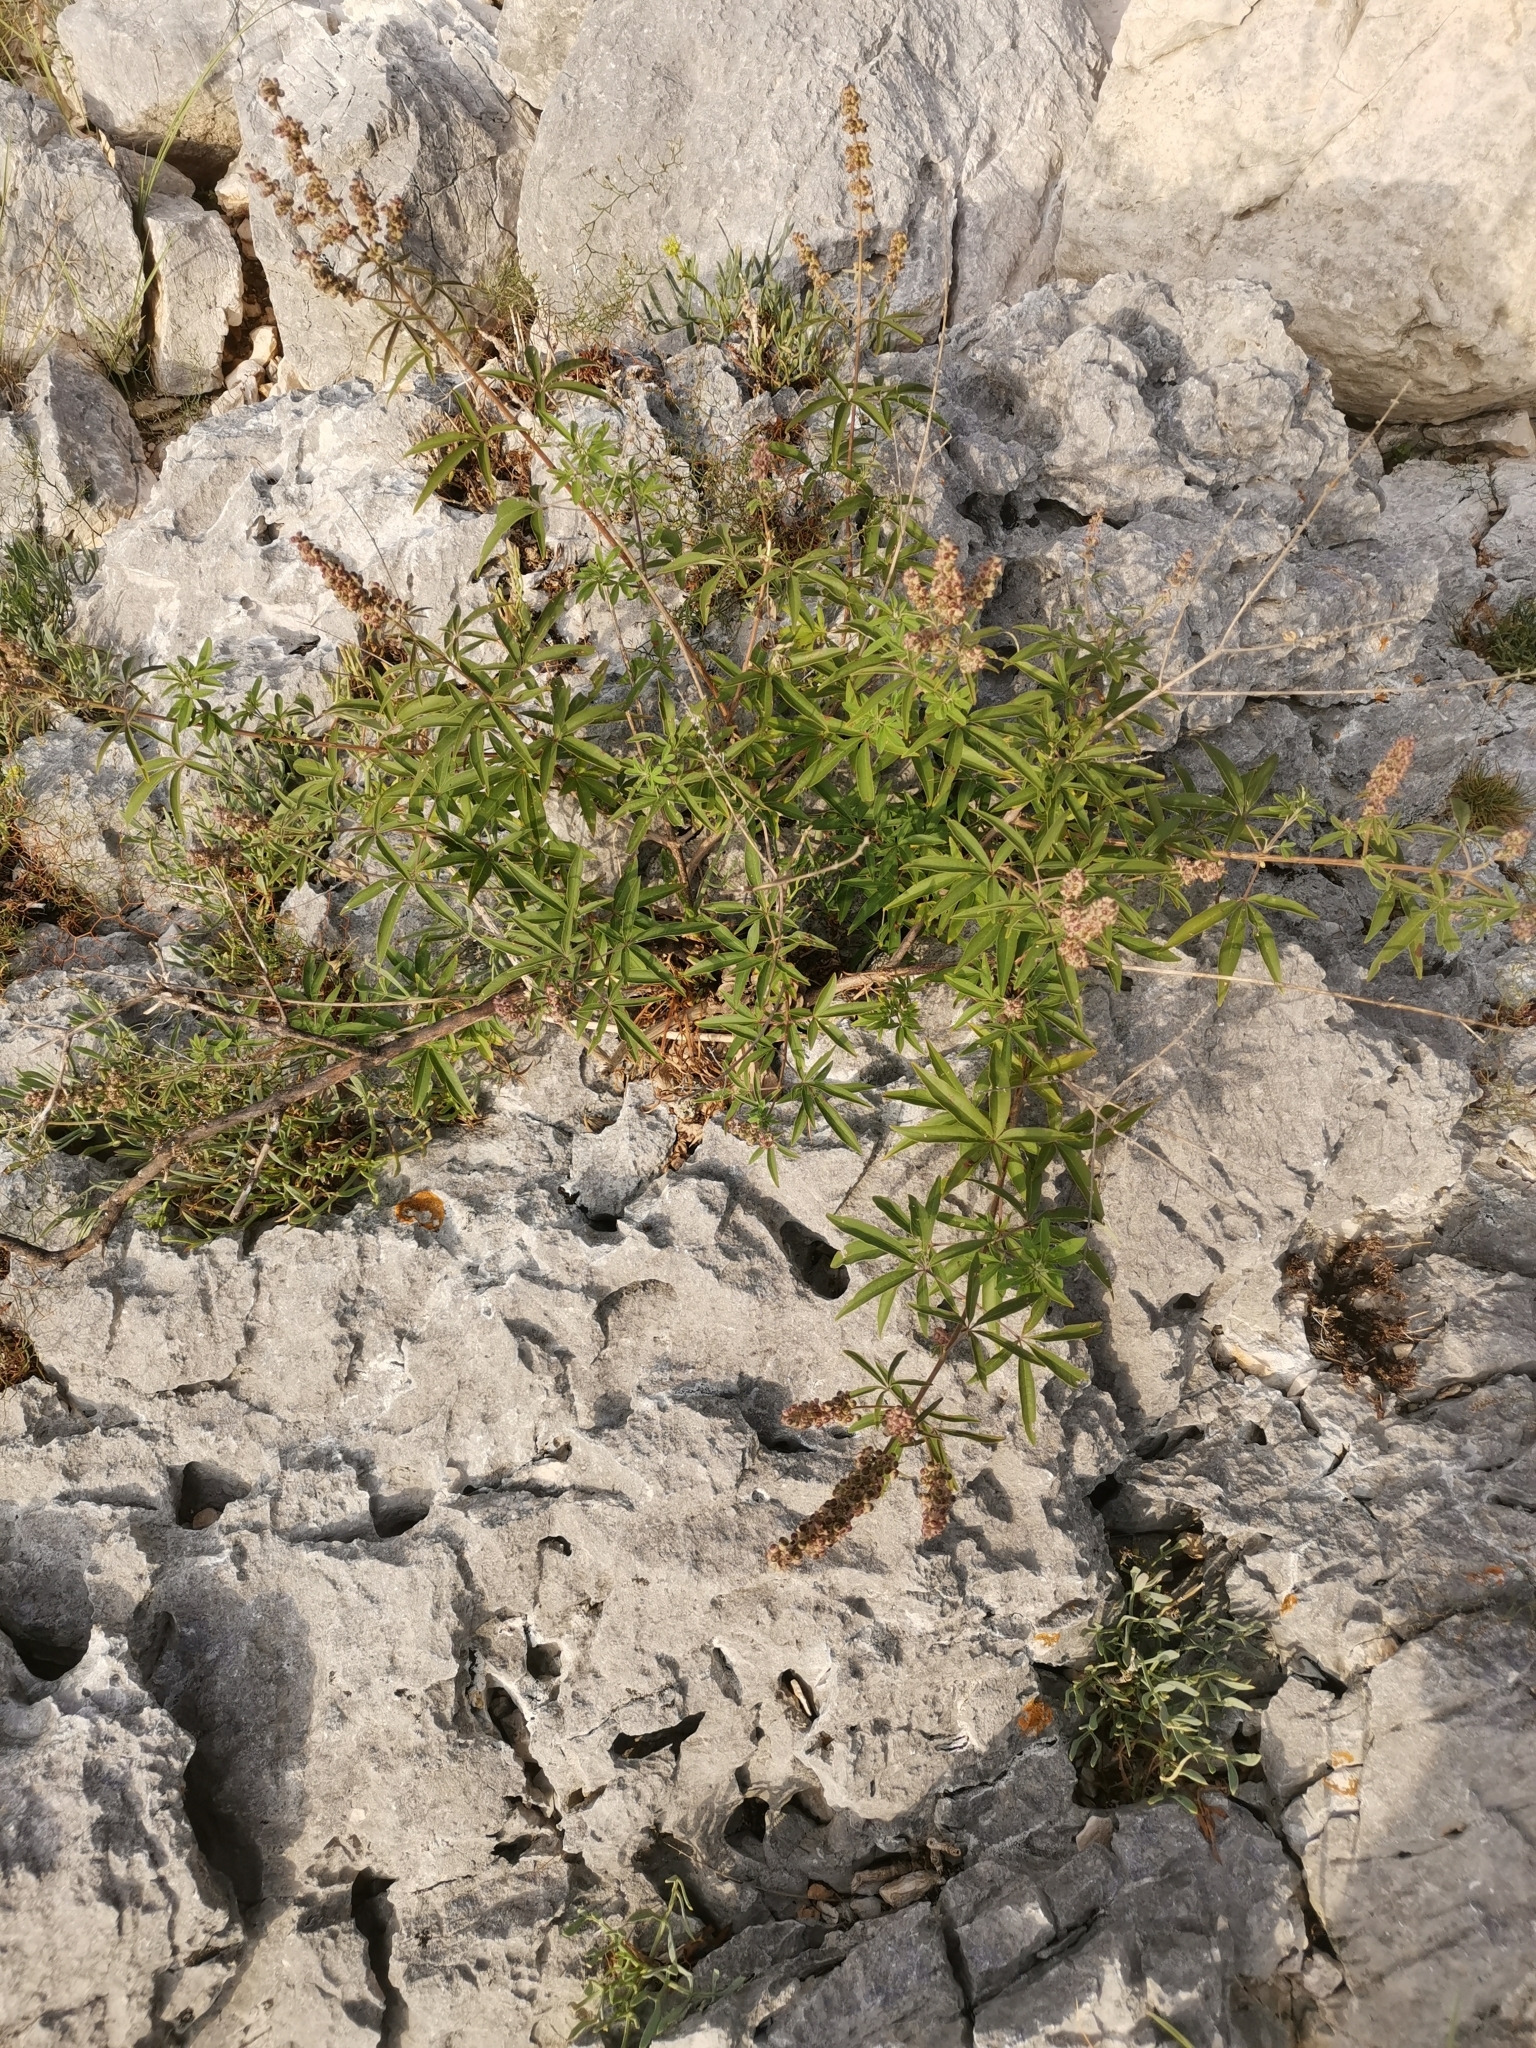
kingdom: Plantae
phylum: Tracheophyta
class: Magnoliopsida
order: Lamiales
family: Lamiaceae
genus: Vitex
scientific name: Vitex agnus-castus
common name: Chasteberry
